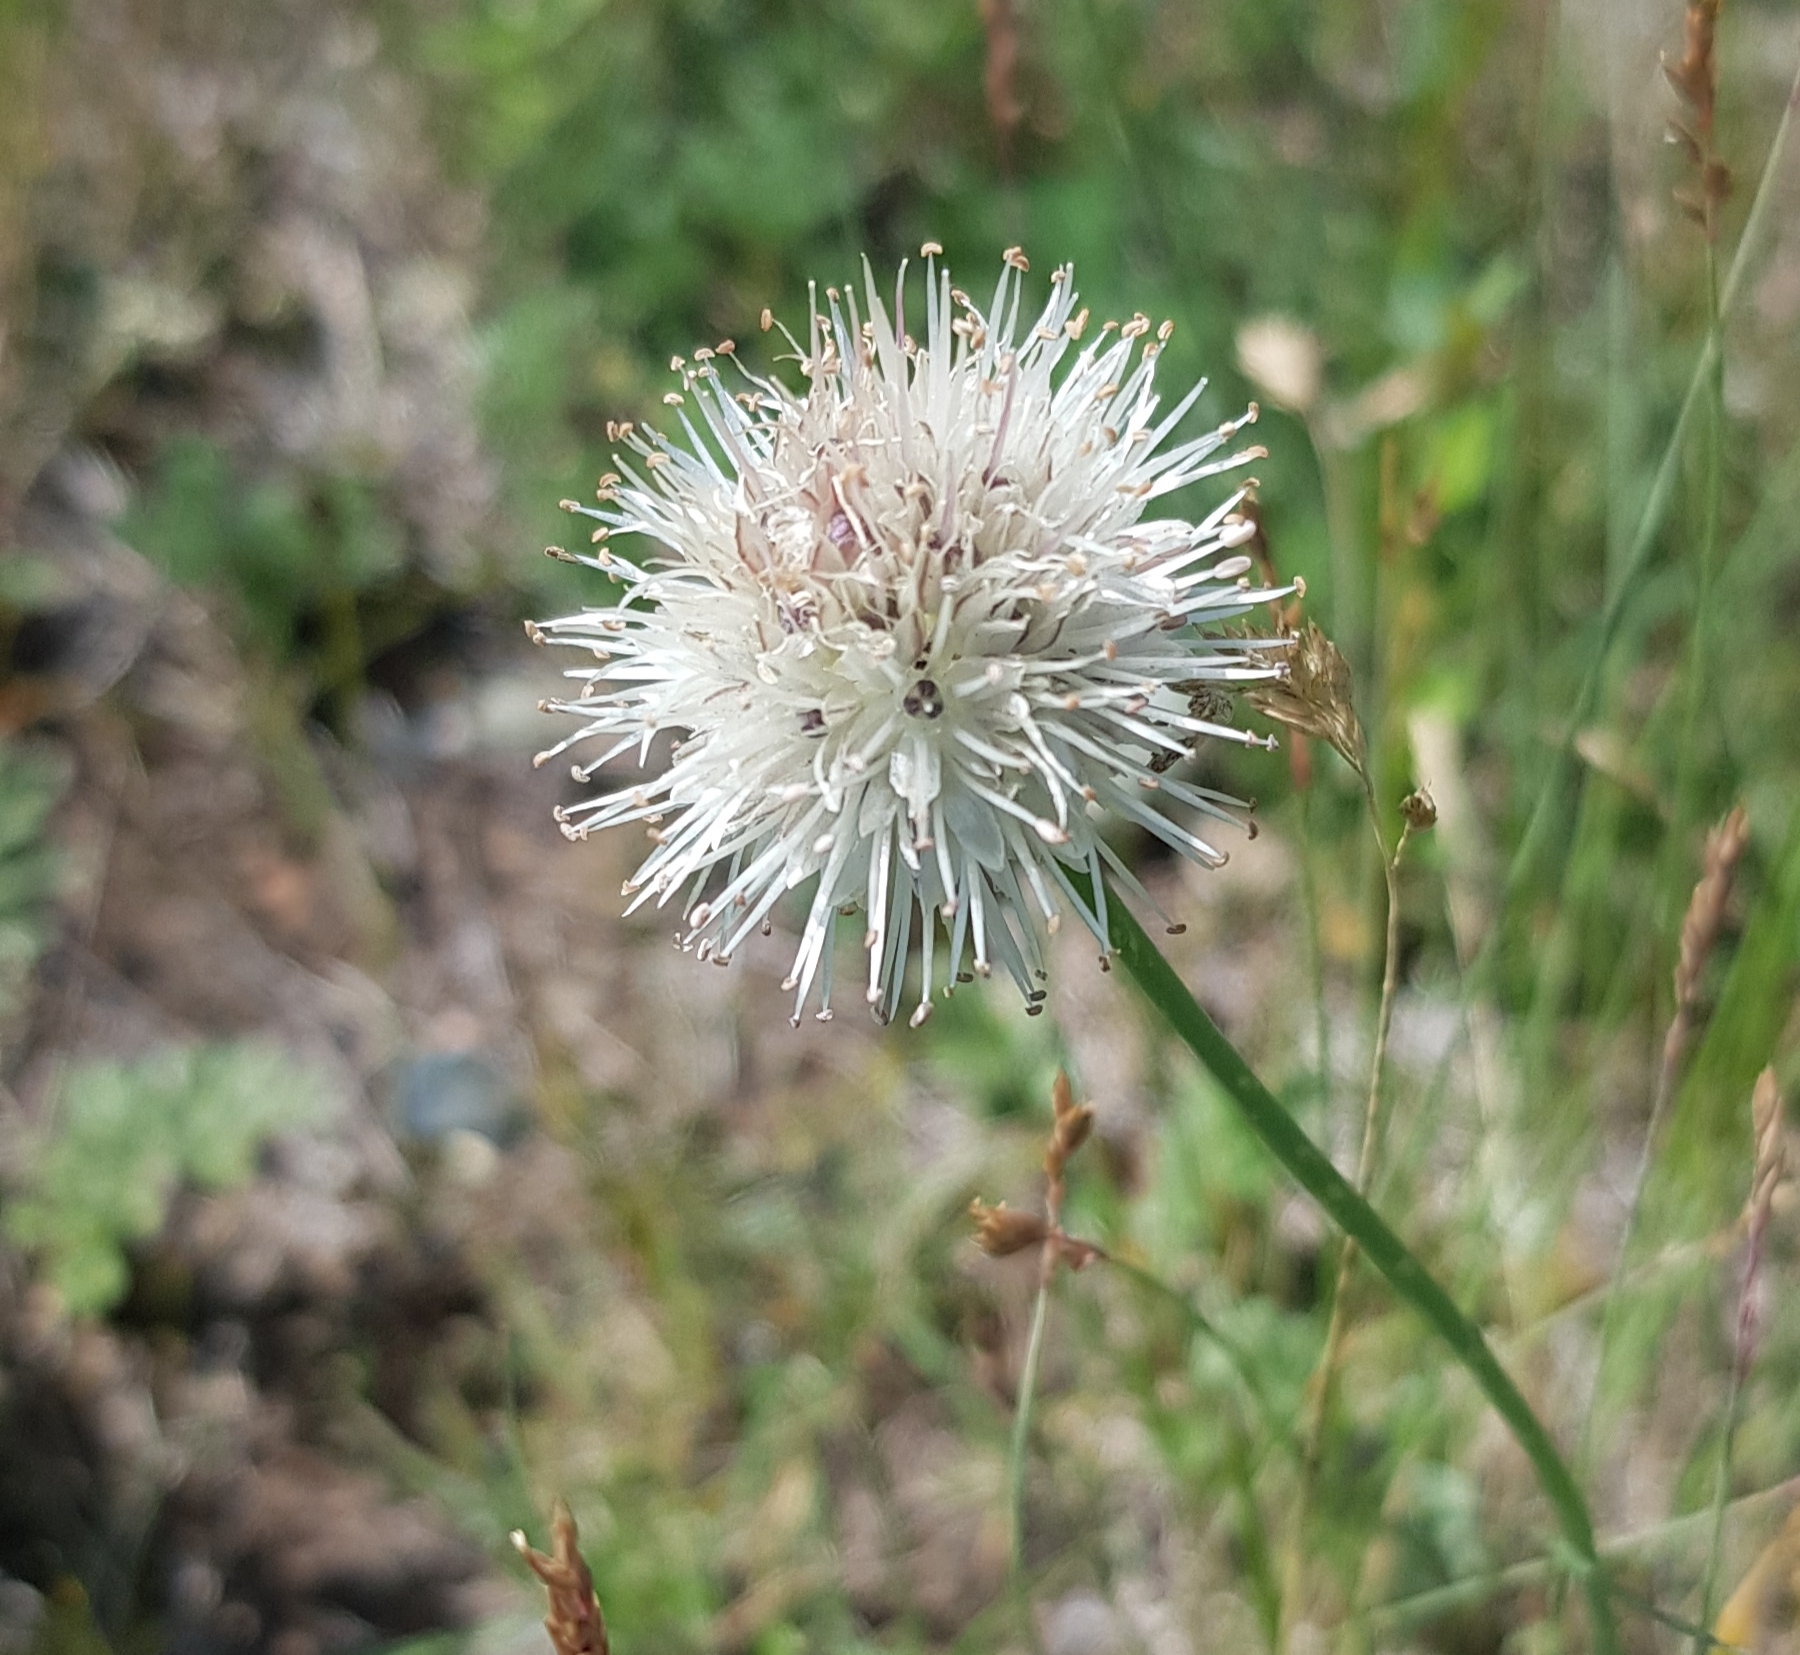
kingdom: Plantae
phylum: Tracheophyta
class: Liliopsida
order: Asparagales
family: Amaryllidaceae
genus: Allium
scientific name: Allium leucocephalum
